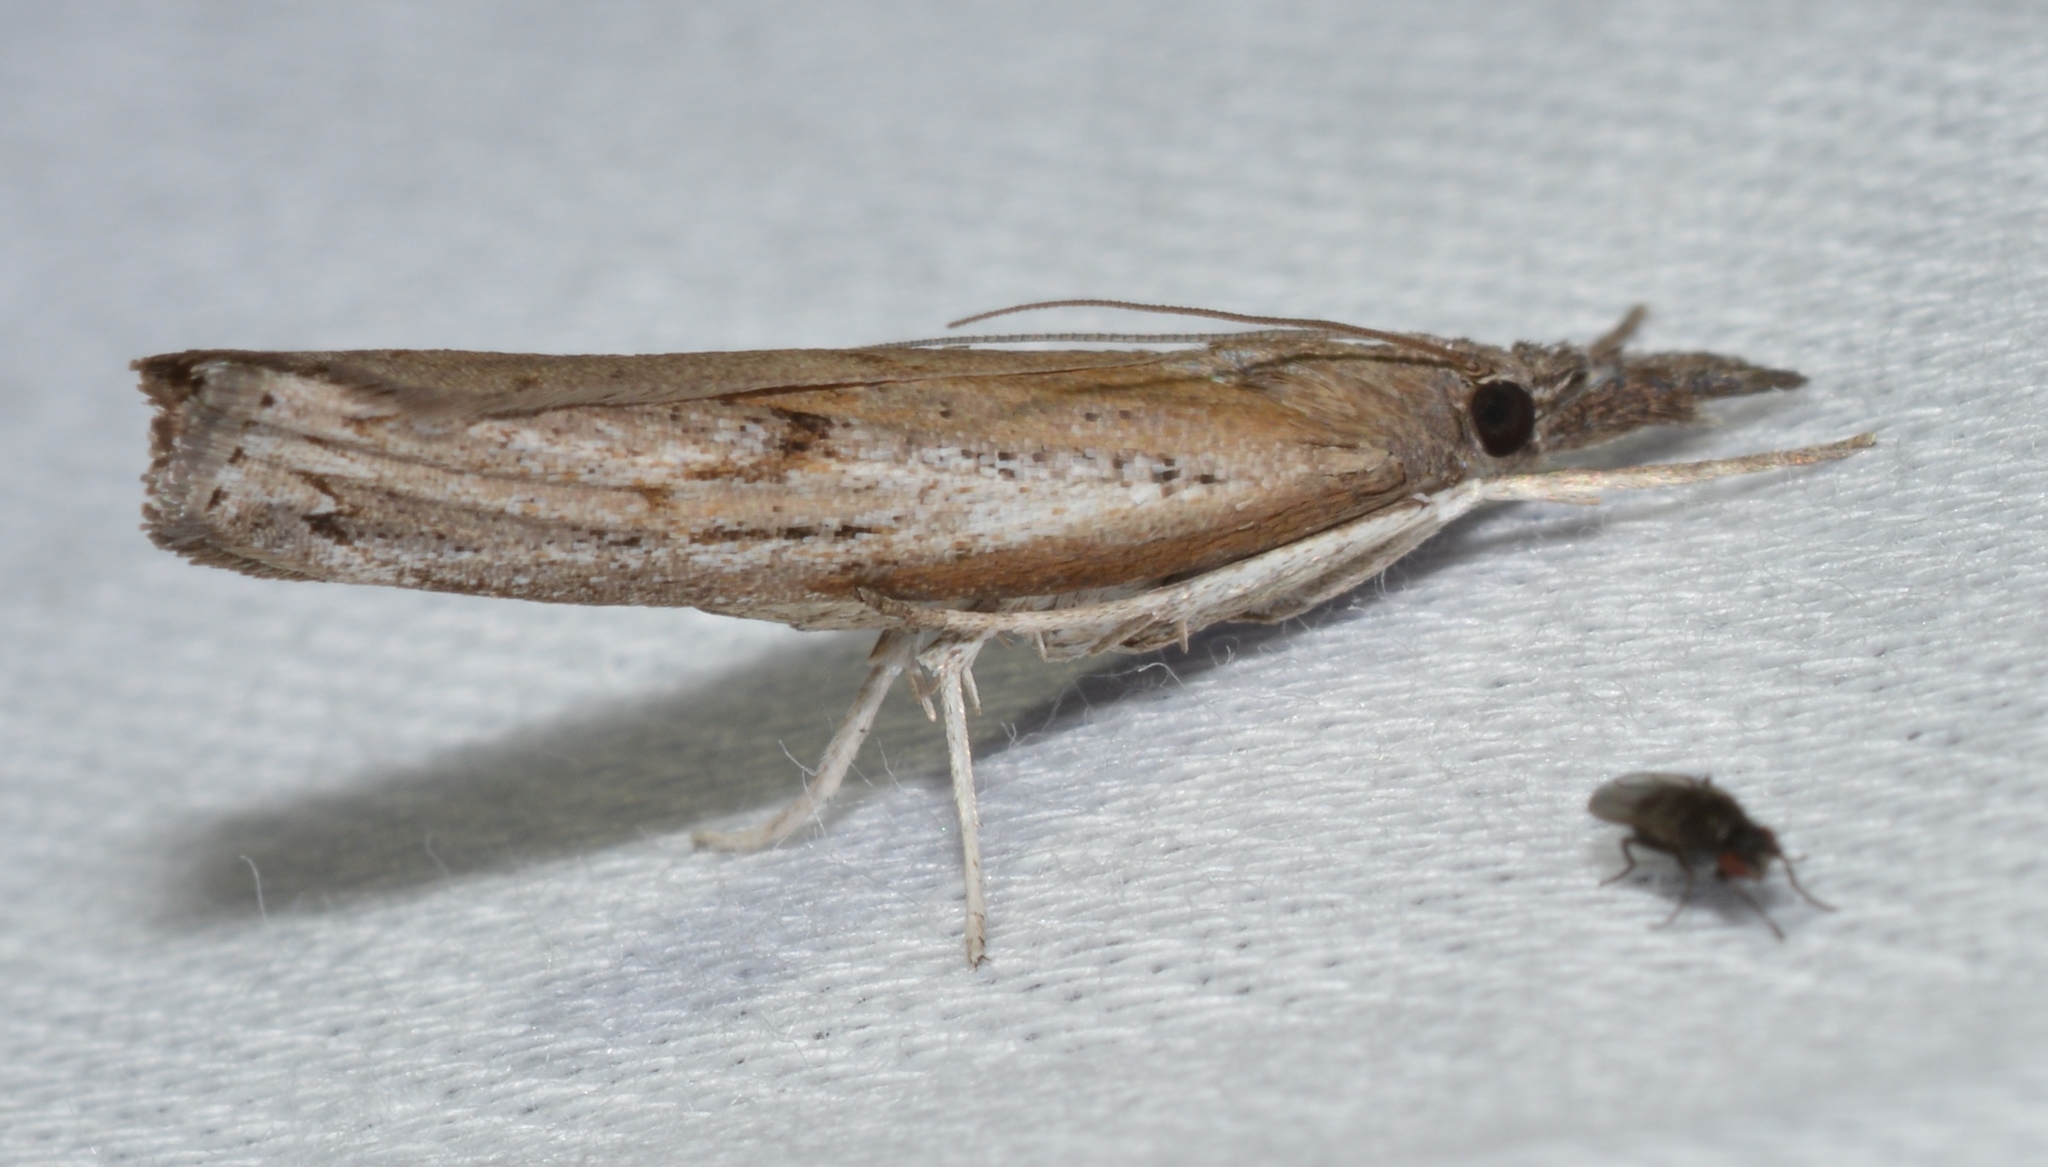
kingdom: Animalia
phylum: Arthropoda
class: Insecta
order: Lepidoptera
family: Crambidae
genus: Fissicrambus
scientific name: Fissicrambus mutabilis
